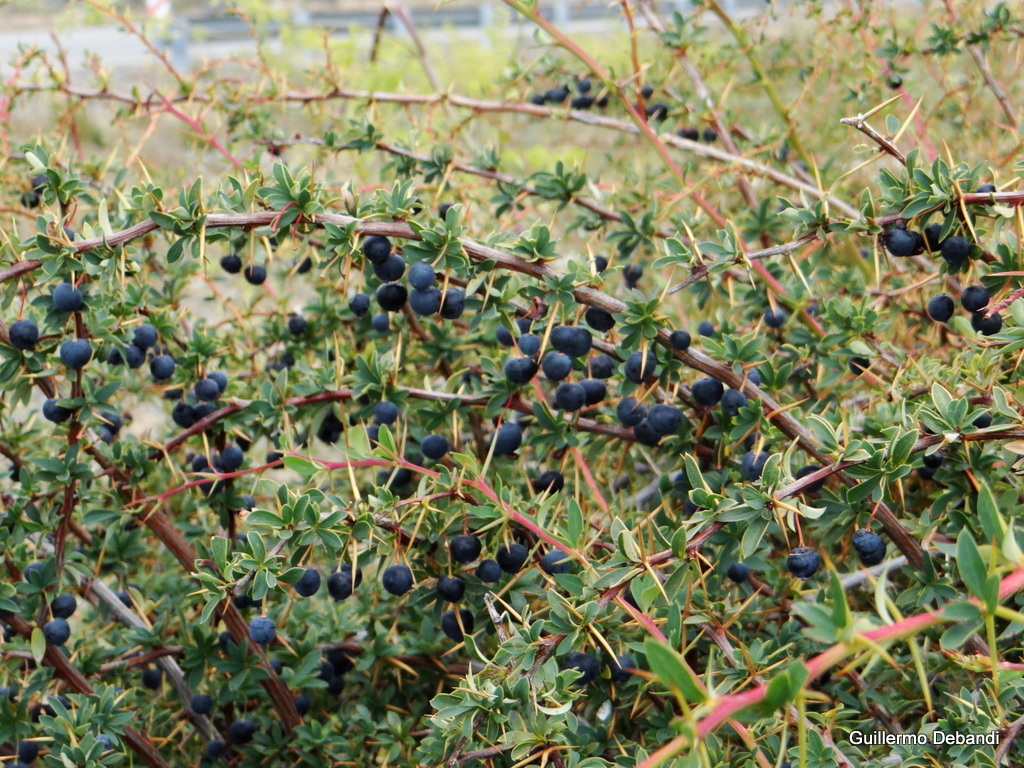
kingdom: Plantae
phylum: Tracheophyta
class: Magnoliopsida
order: Ranunculales
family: Berberidaceae
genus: Berberis
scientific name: Berberis microphylla
